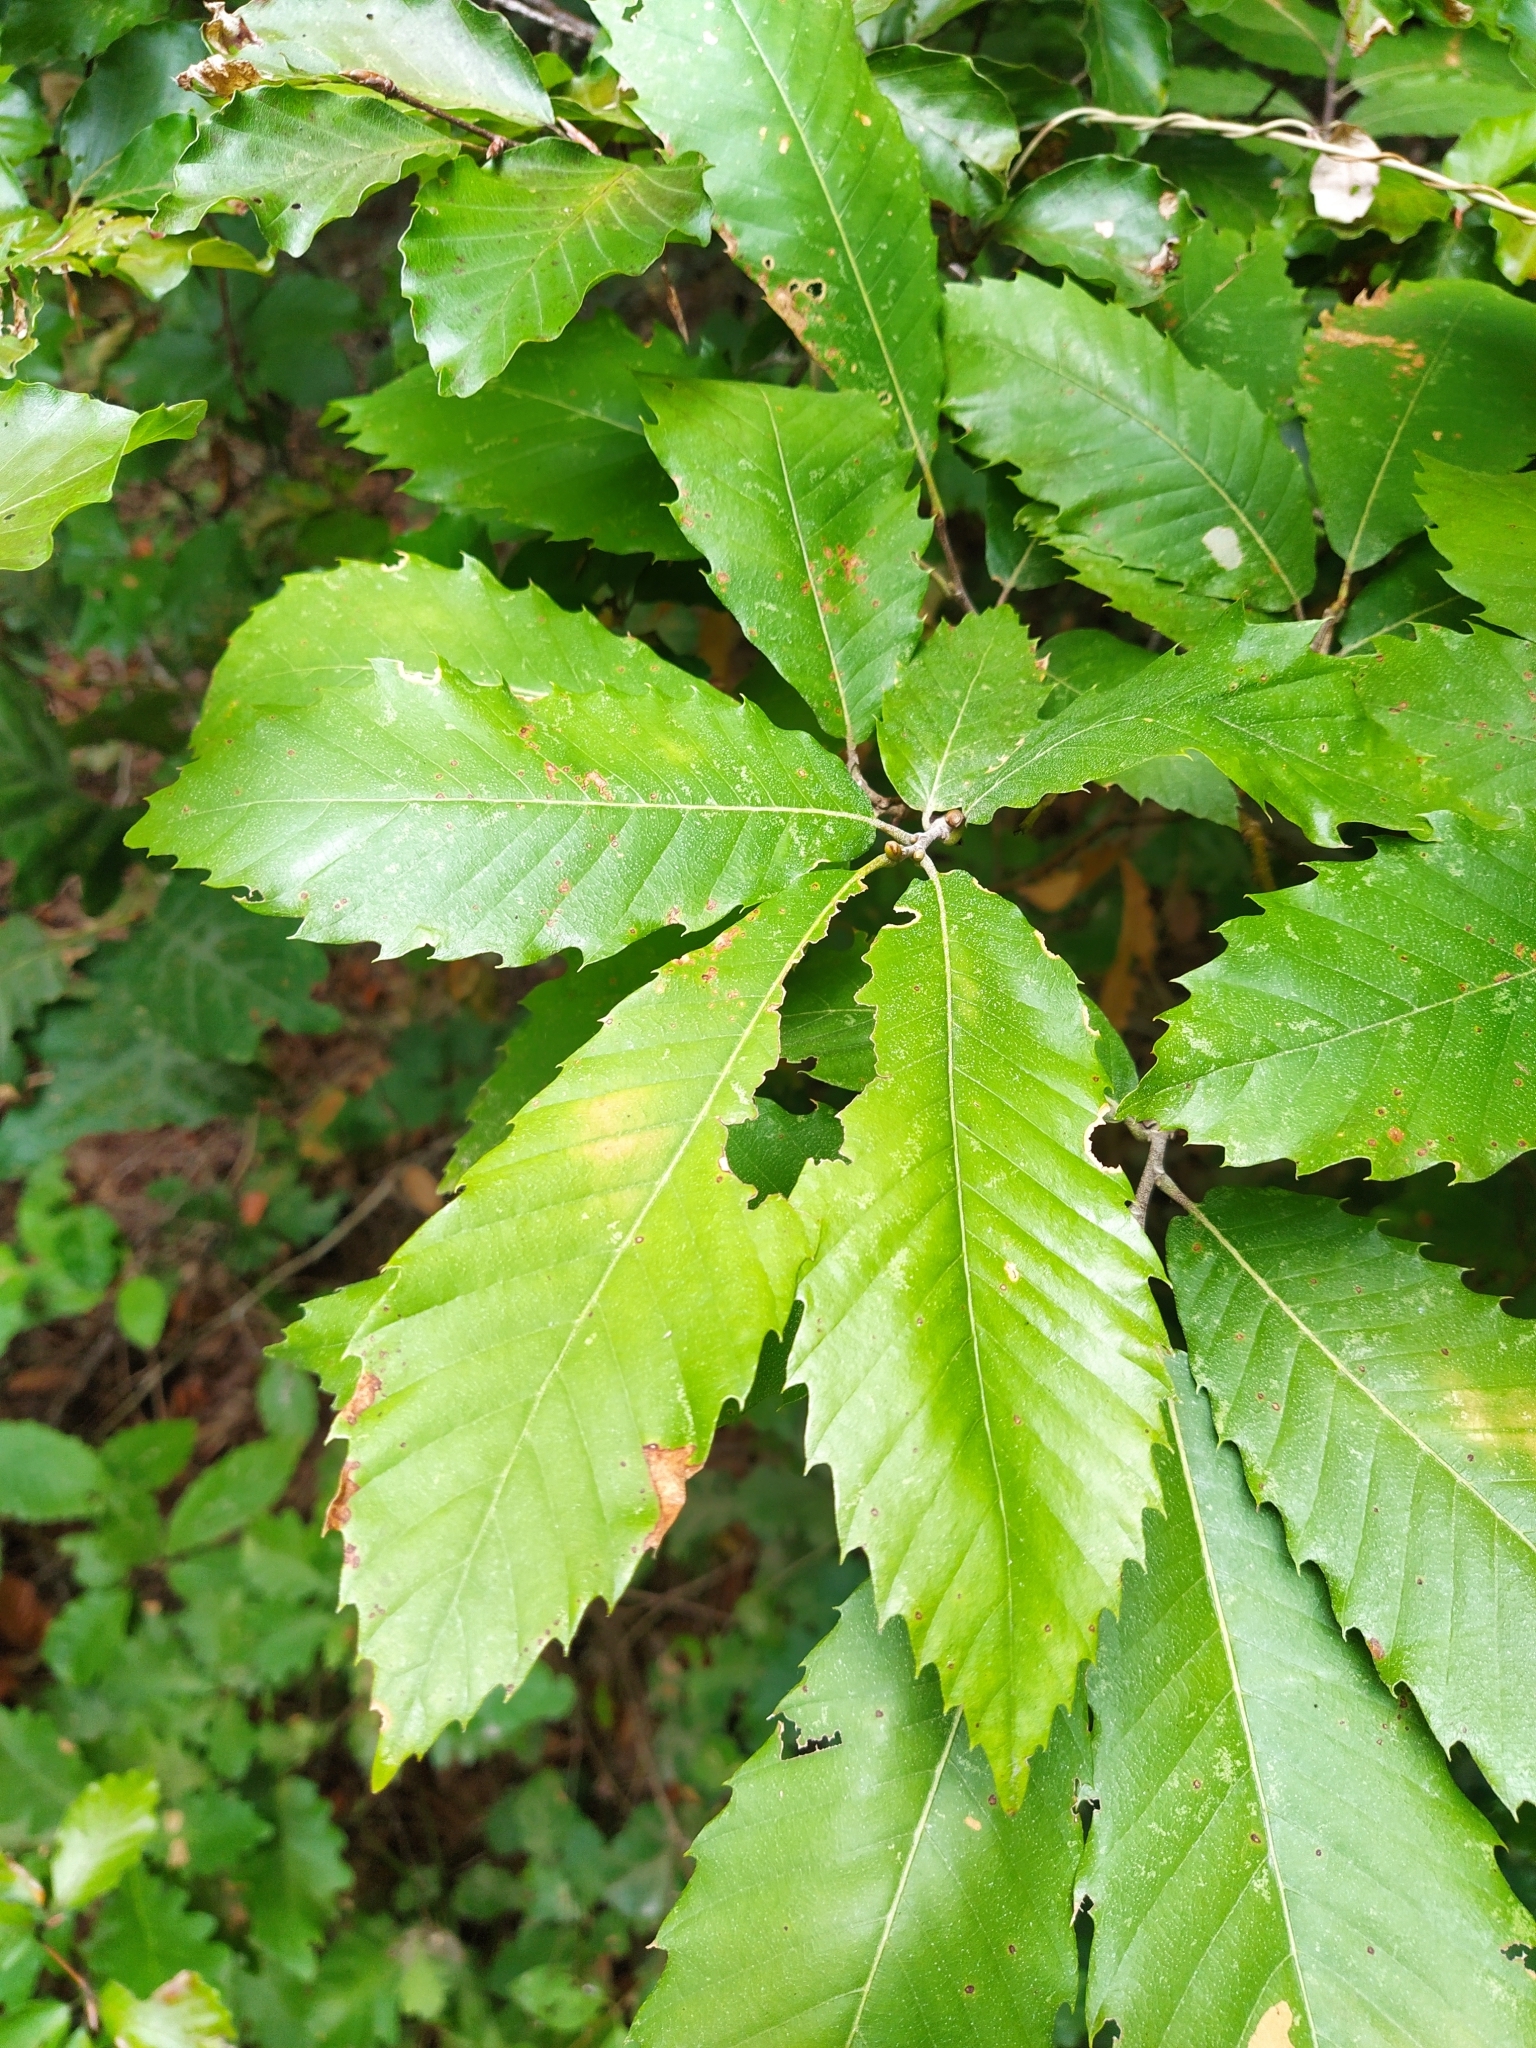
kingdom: Plantae
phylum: Tracheophyta
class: Magnoliopsida
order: Fagales
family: Fagaceae
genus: Castanea
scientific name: Castanea sativa
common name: Sweet chestnut
